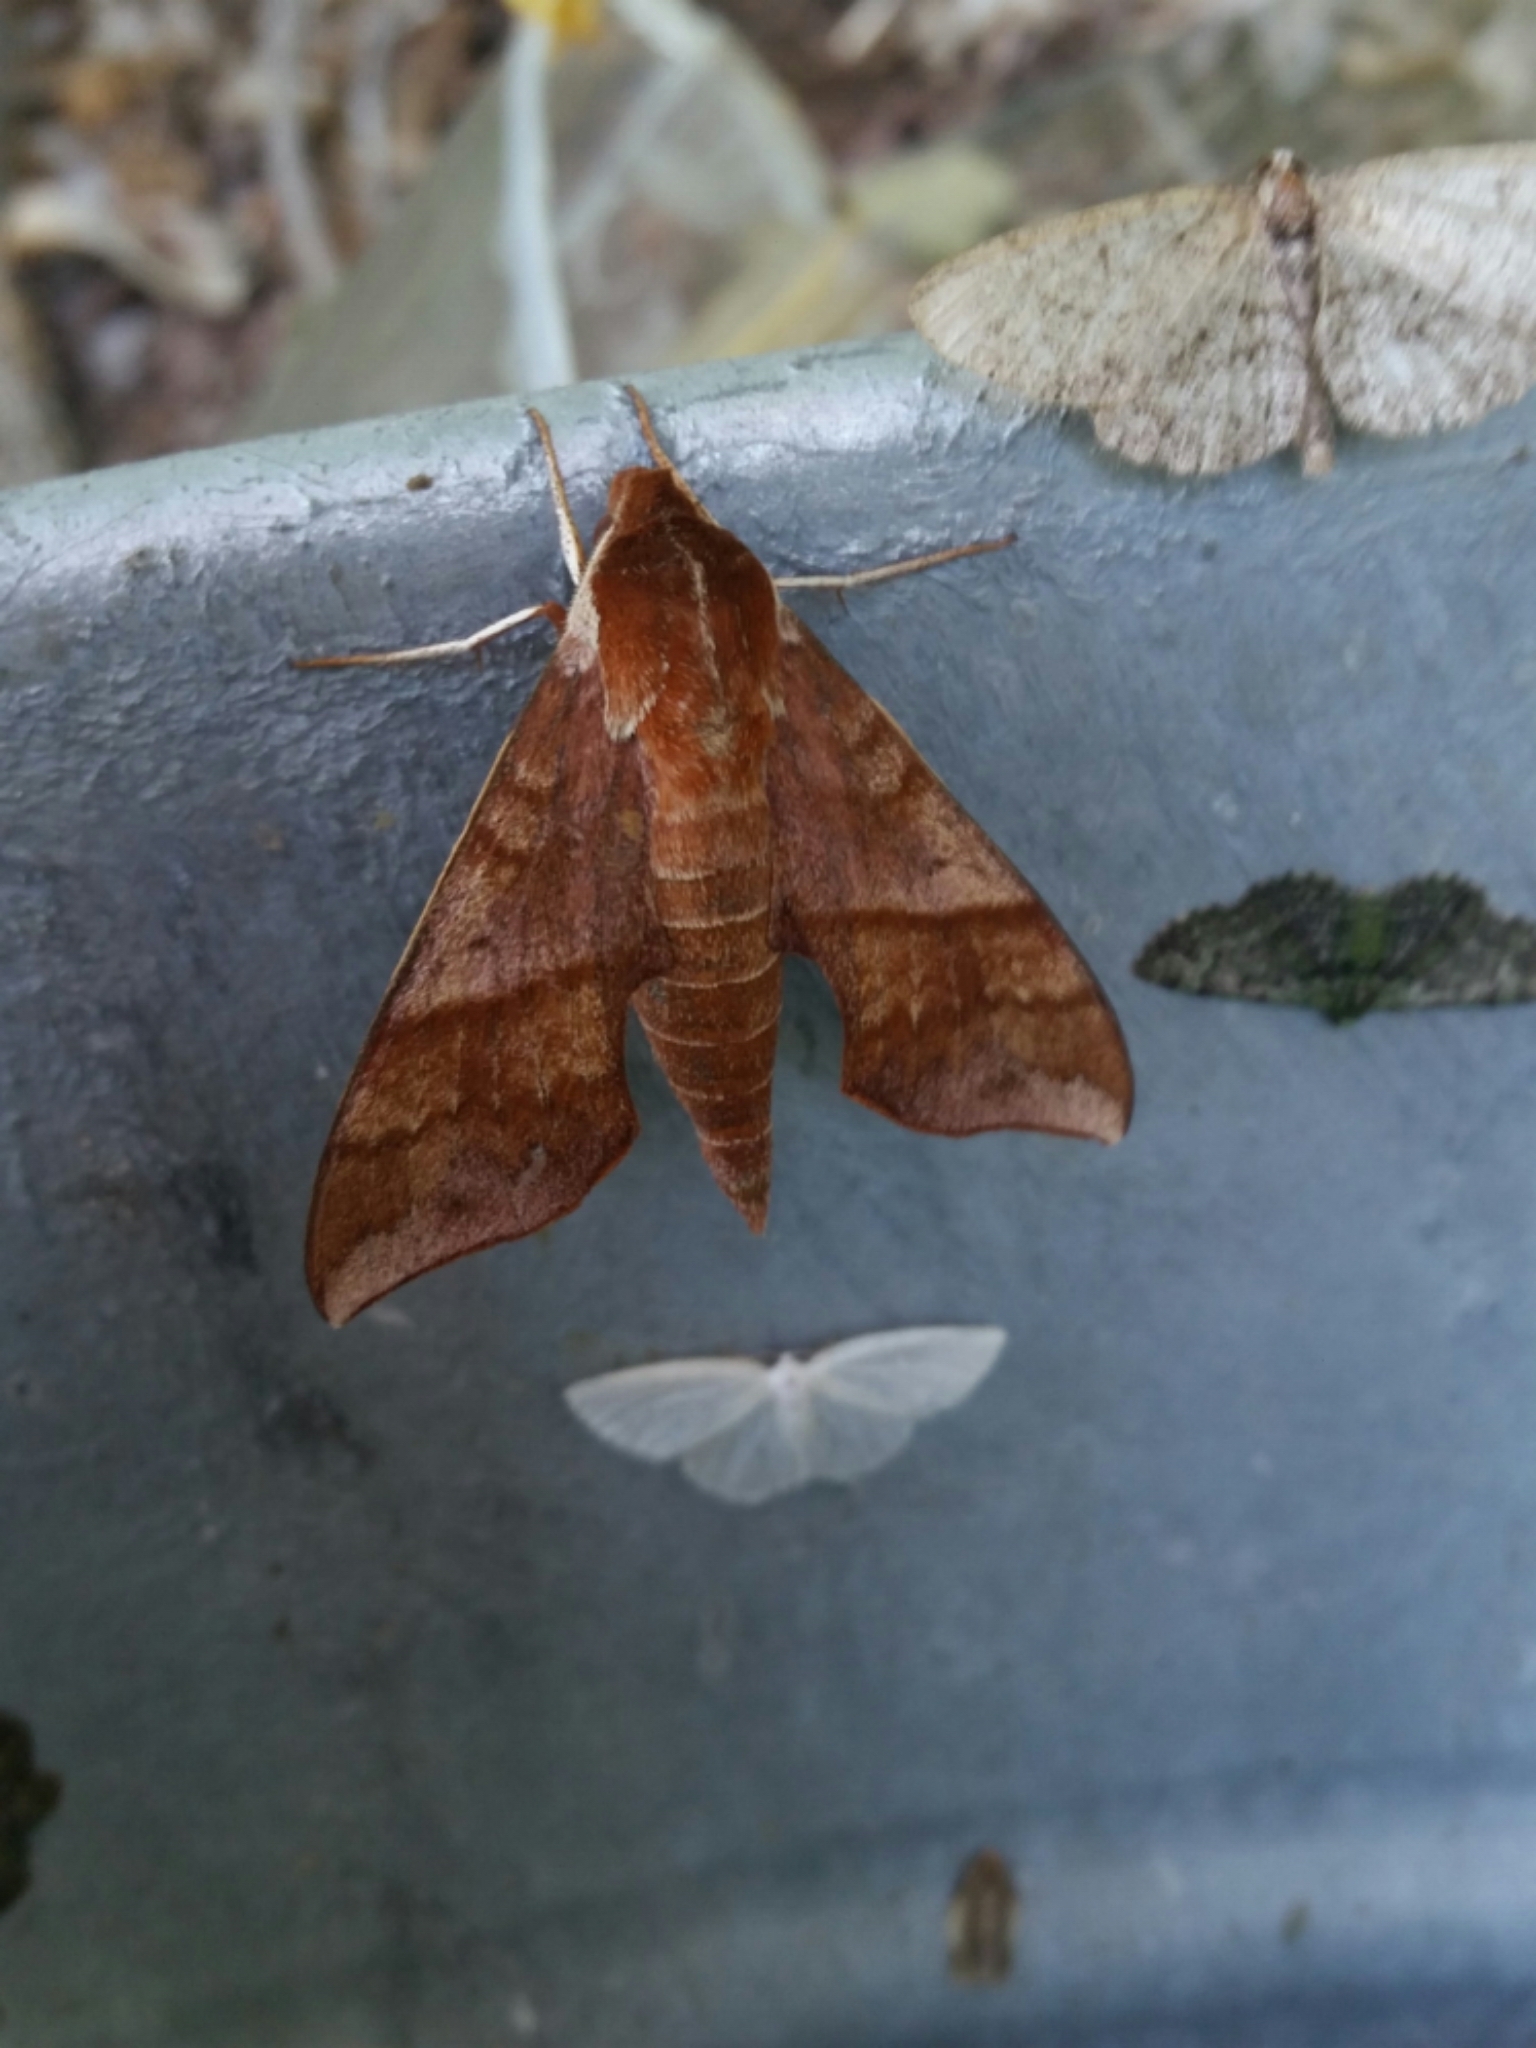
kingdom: Animalia
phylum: Arthropoda
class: Insecta
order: Lepidoptera
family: Sphingidae
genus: Darapsa
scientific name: Darapsa choerilus
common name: Azalea sphinx
